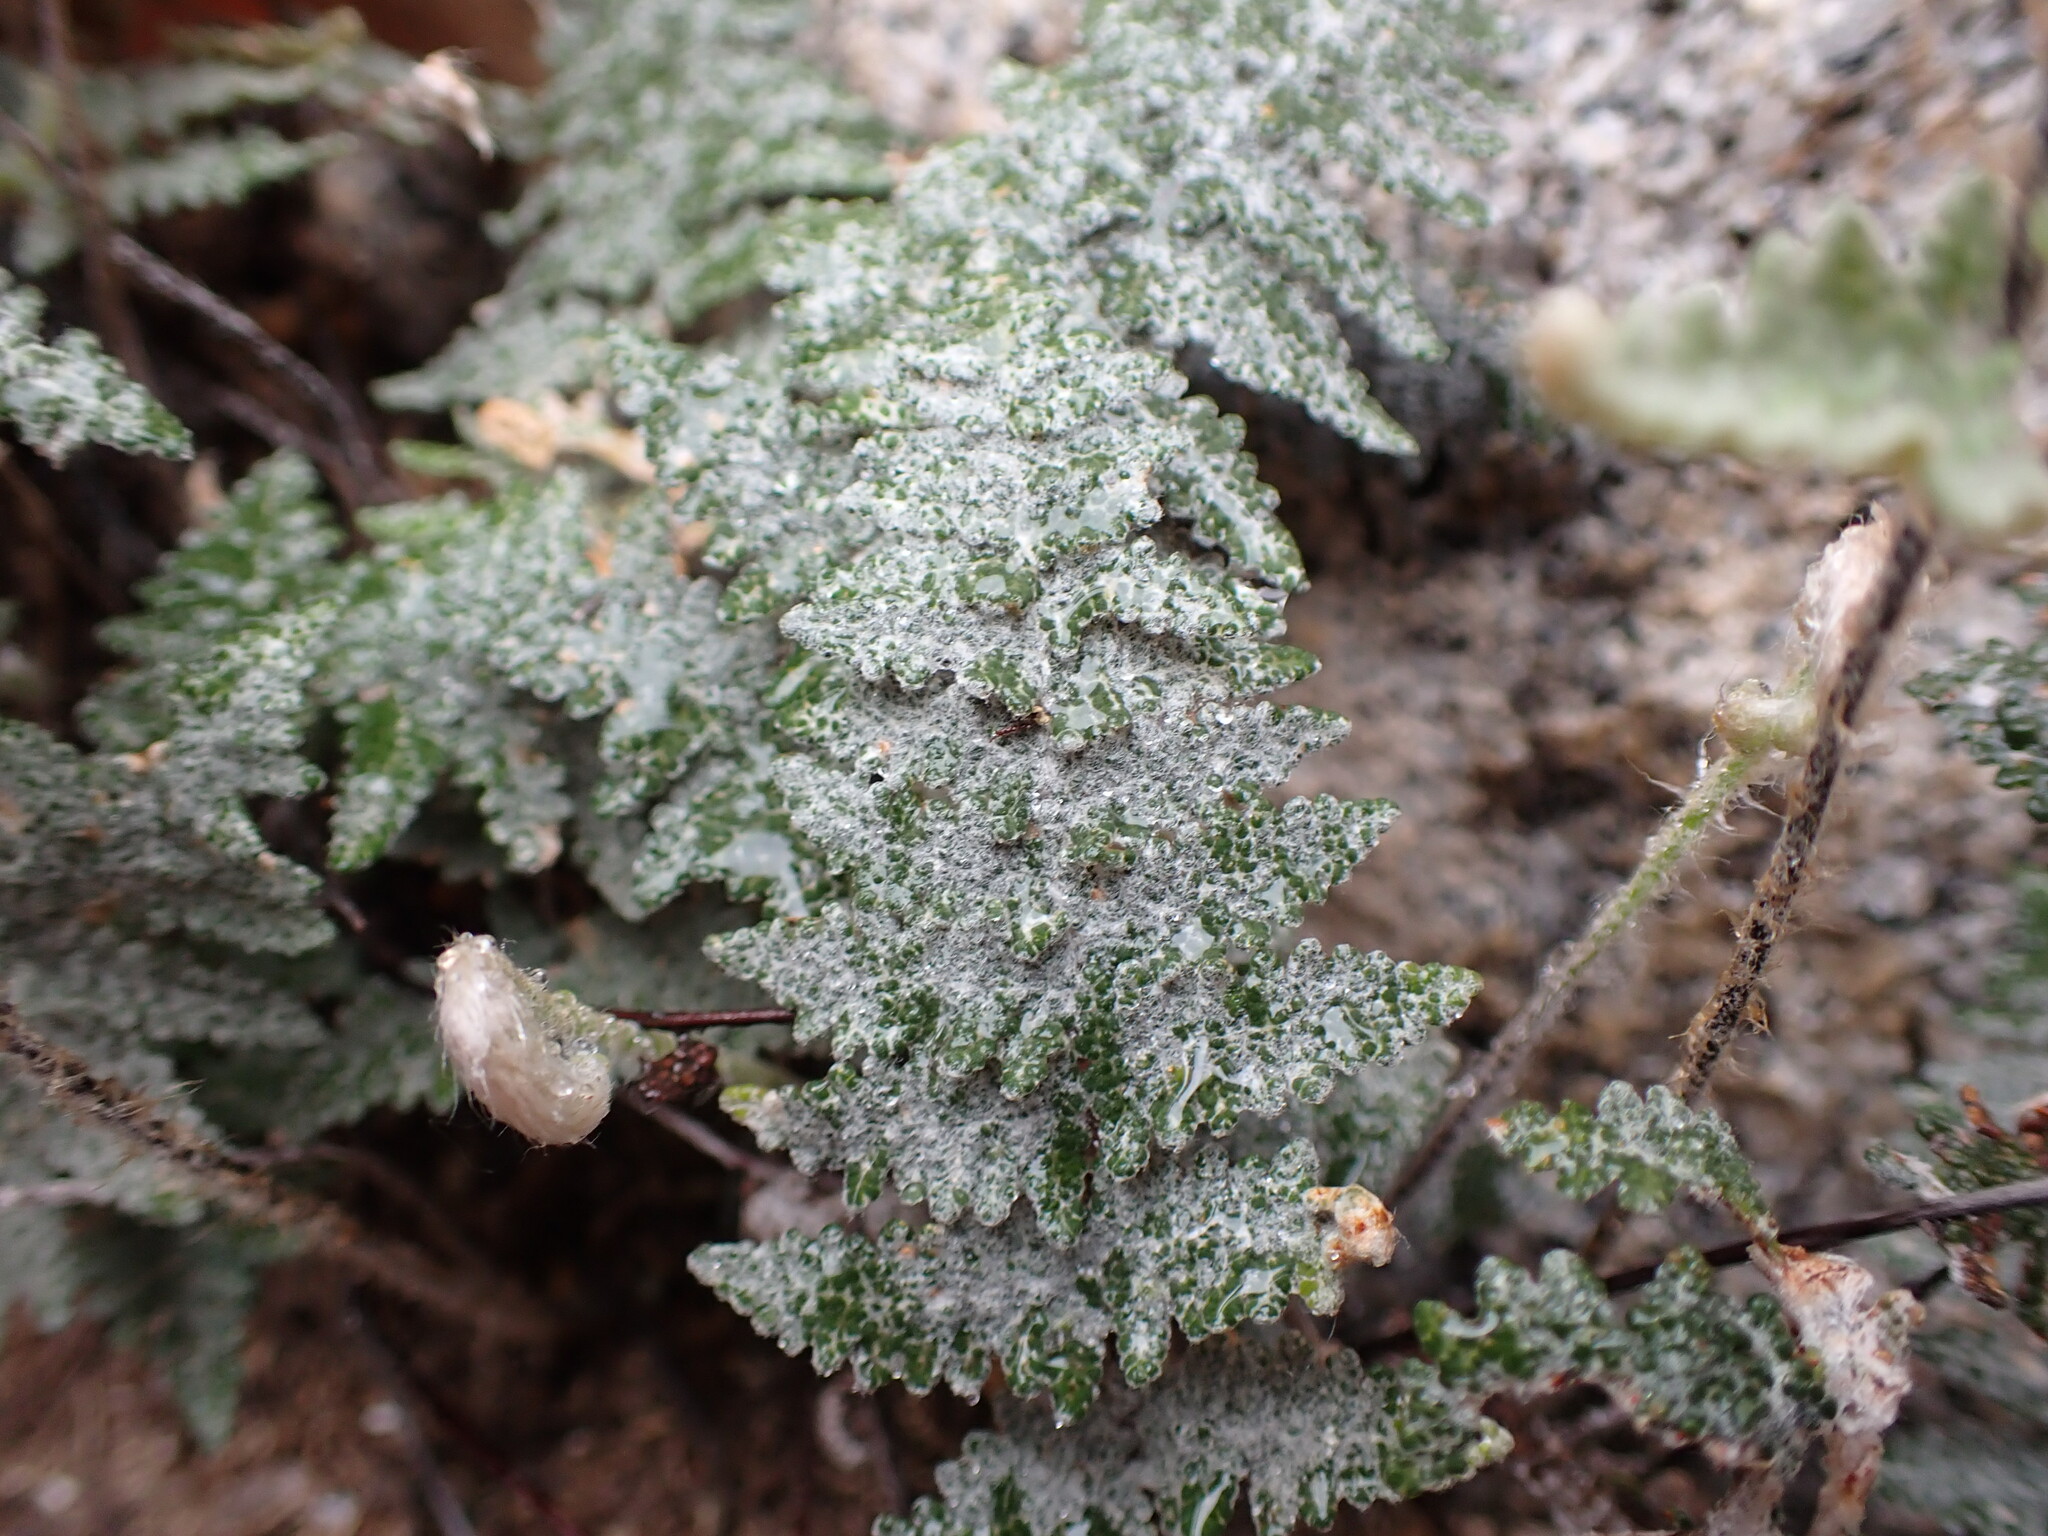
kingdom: Plantae
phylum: Tracheophyta
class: Polypodiopsida
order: Polypodiales
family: Pteridaceae
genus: Myriopteris
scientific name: Myriopteris lindheimeri
